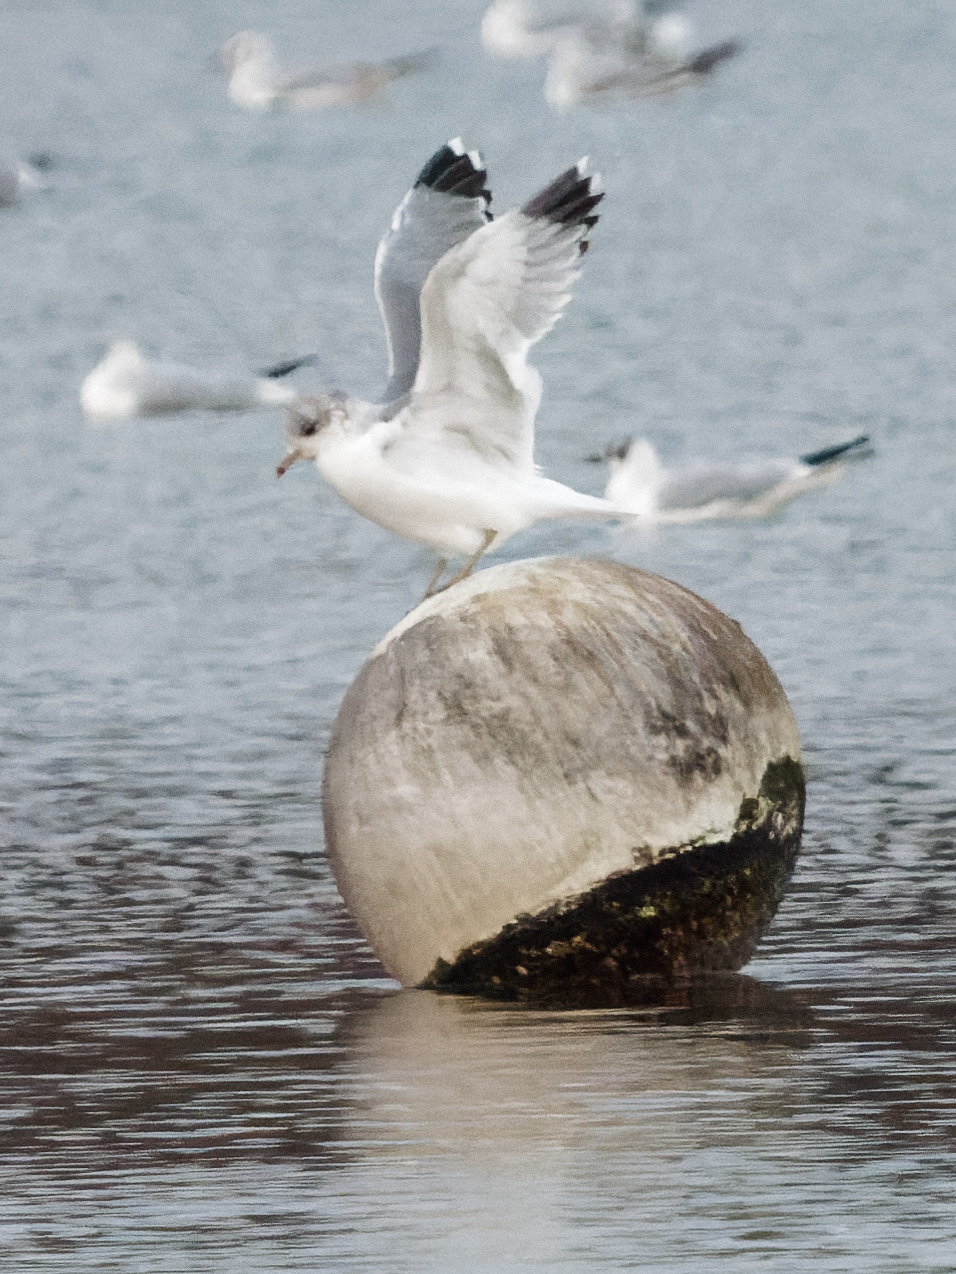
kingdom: Animalia
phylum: Chordata
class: Aves
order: Charadriiformes
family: Laridae
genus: Larus
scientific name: Larus canus
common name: Mew gull
